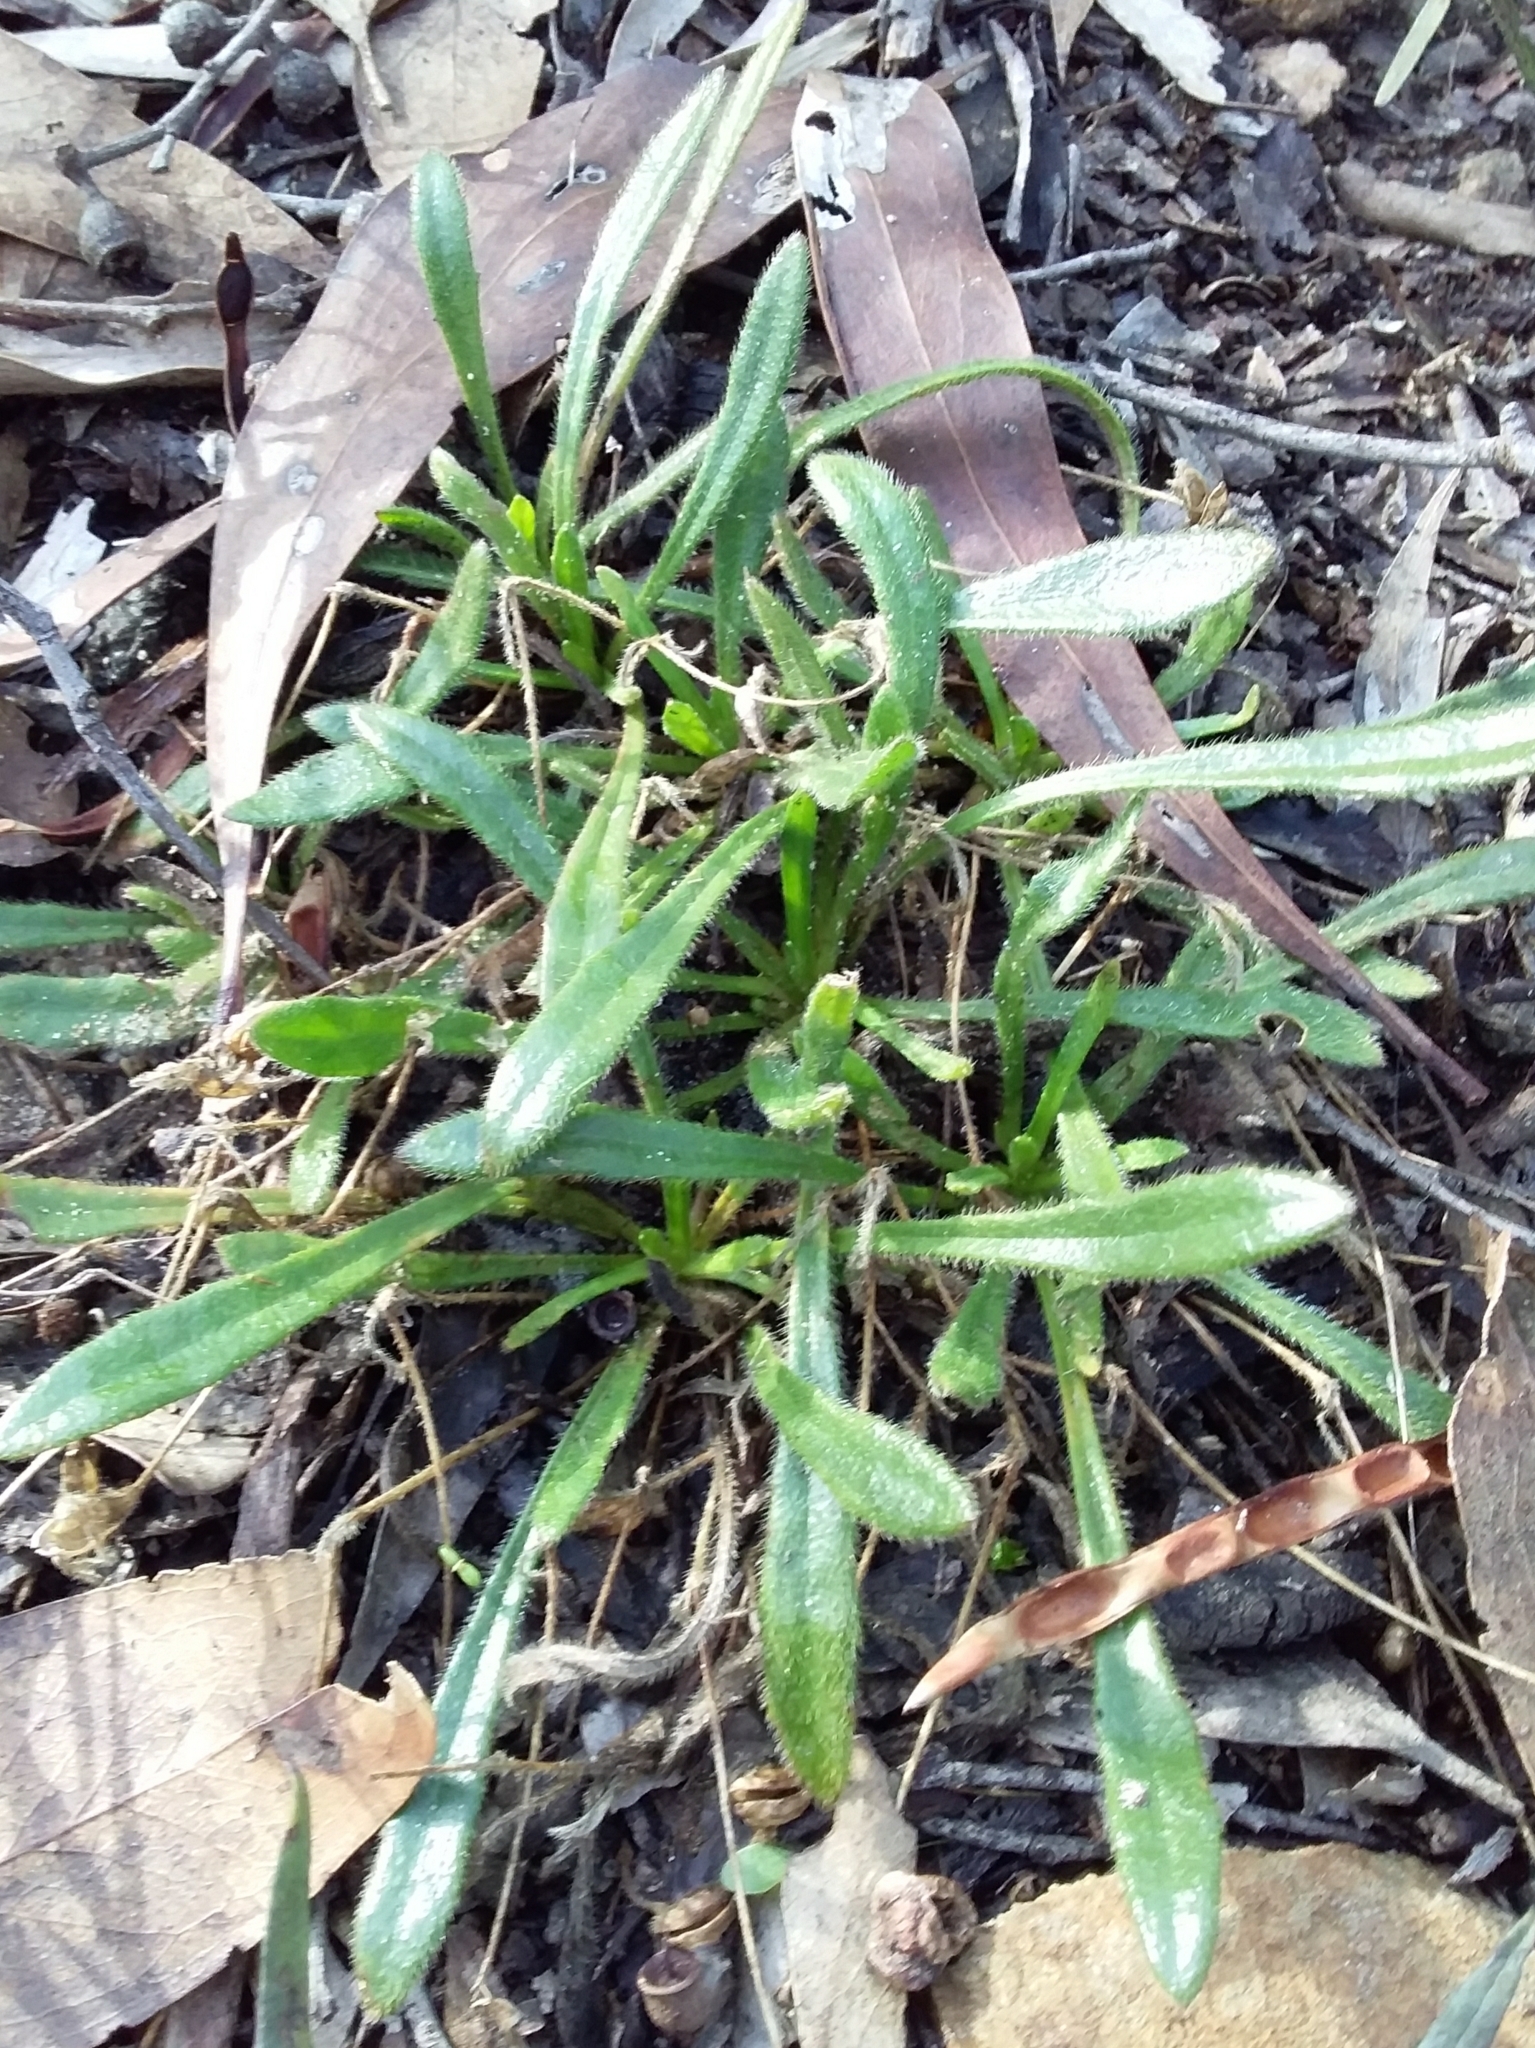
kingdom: Plantae
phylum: Tracheophyta
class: Magnoliopsida
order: Asterales
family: Goodeniaceae
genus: Goodenia
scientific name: Goodenia geniculata
